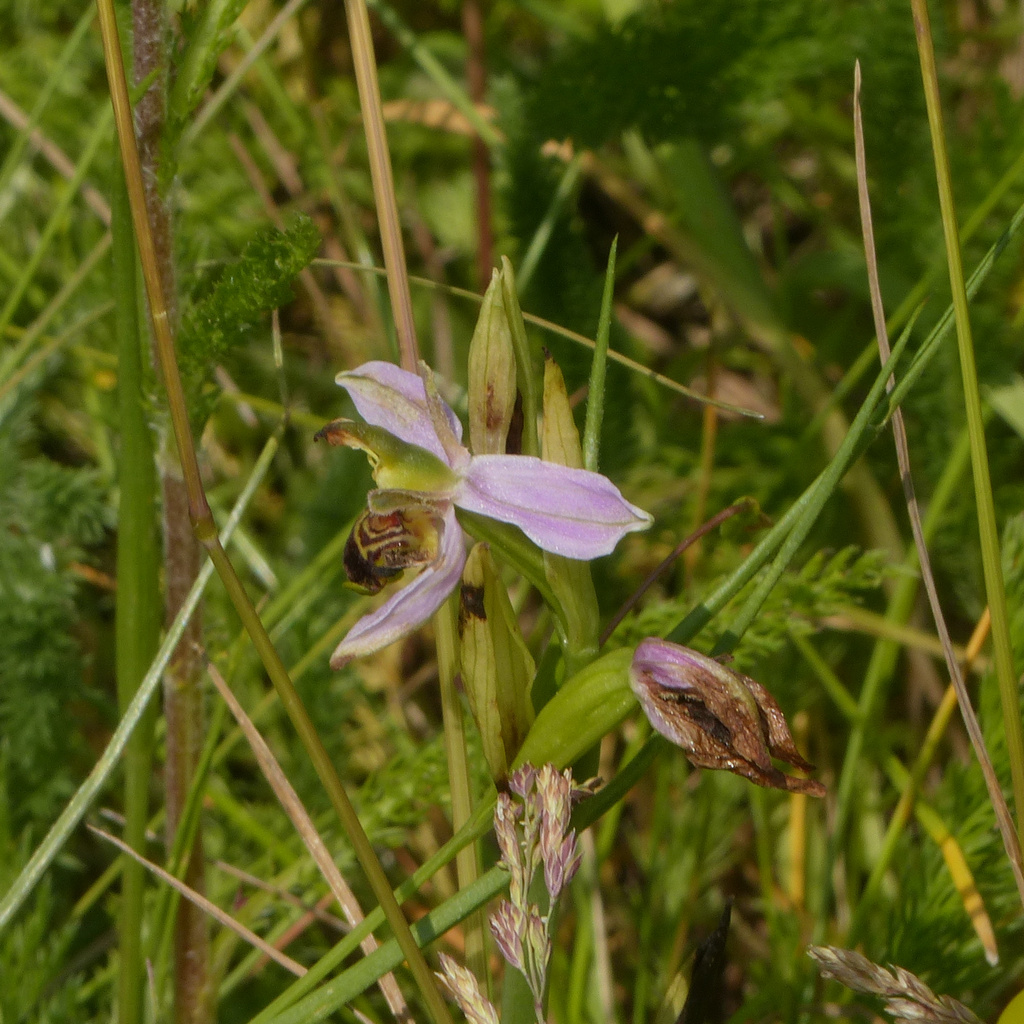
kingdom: Plantae
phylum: Tracheophyta
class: Liliopsida
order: Asparagales
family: Orchidaceae
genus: Ophrys
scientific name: Ophrys apifera
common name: Bee orchid
